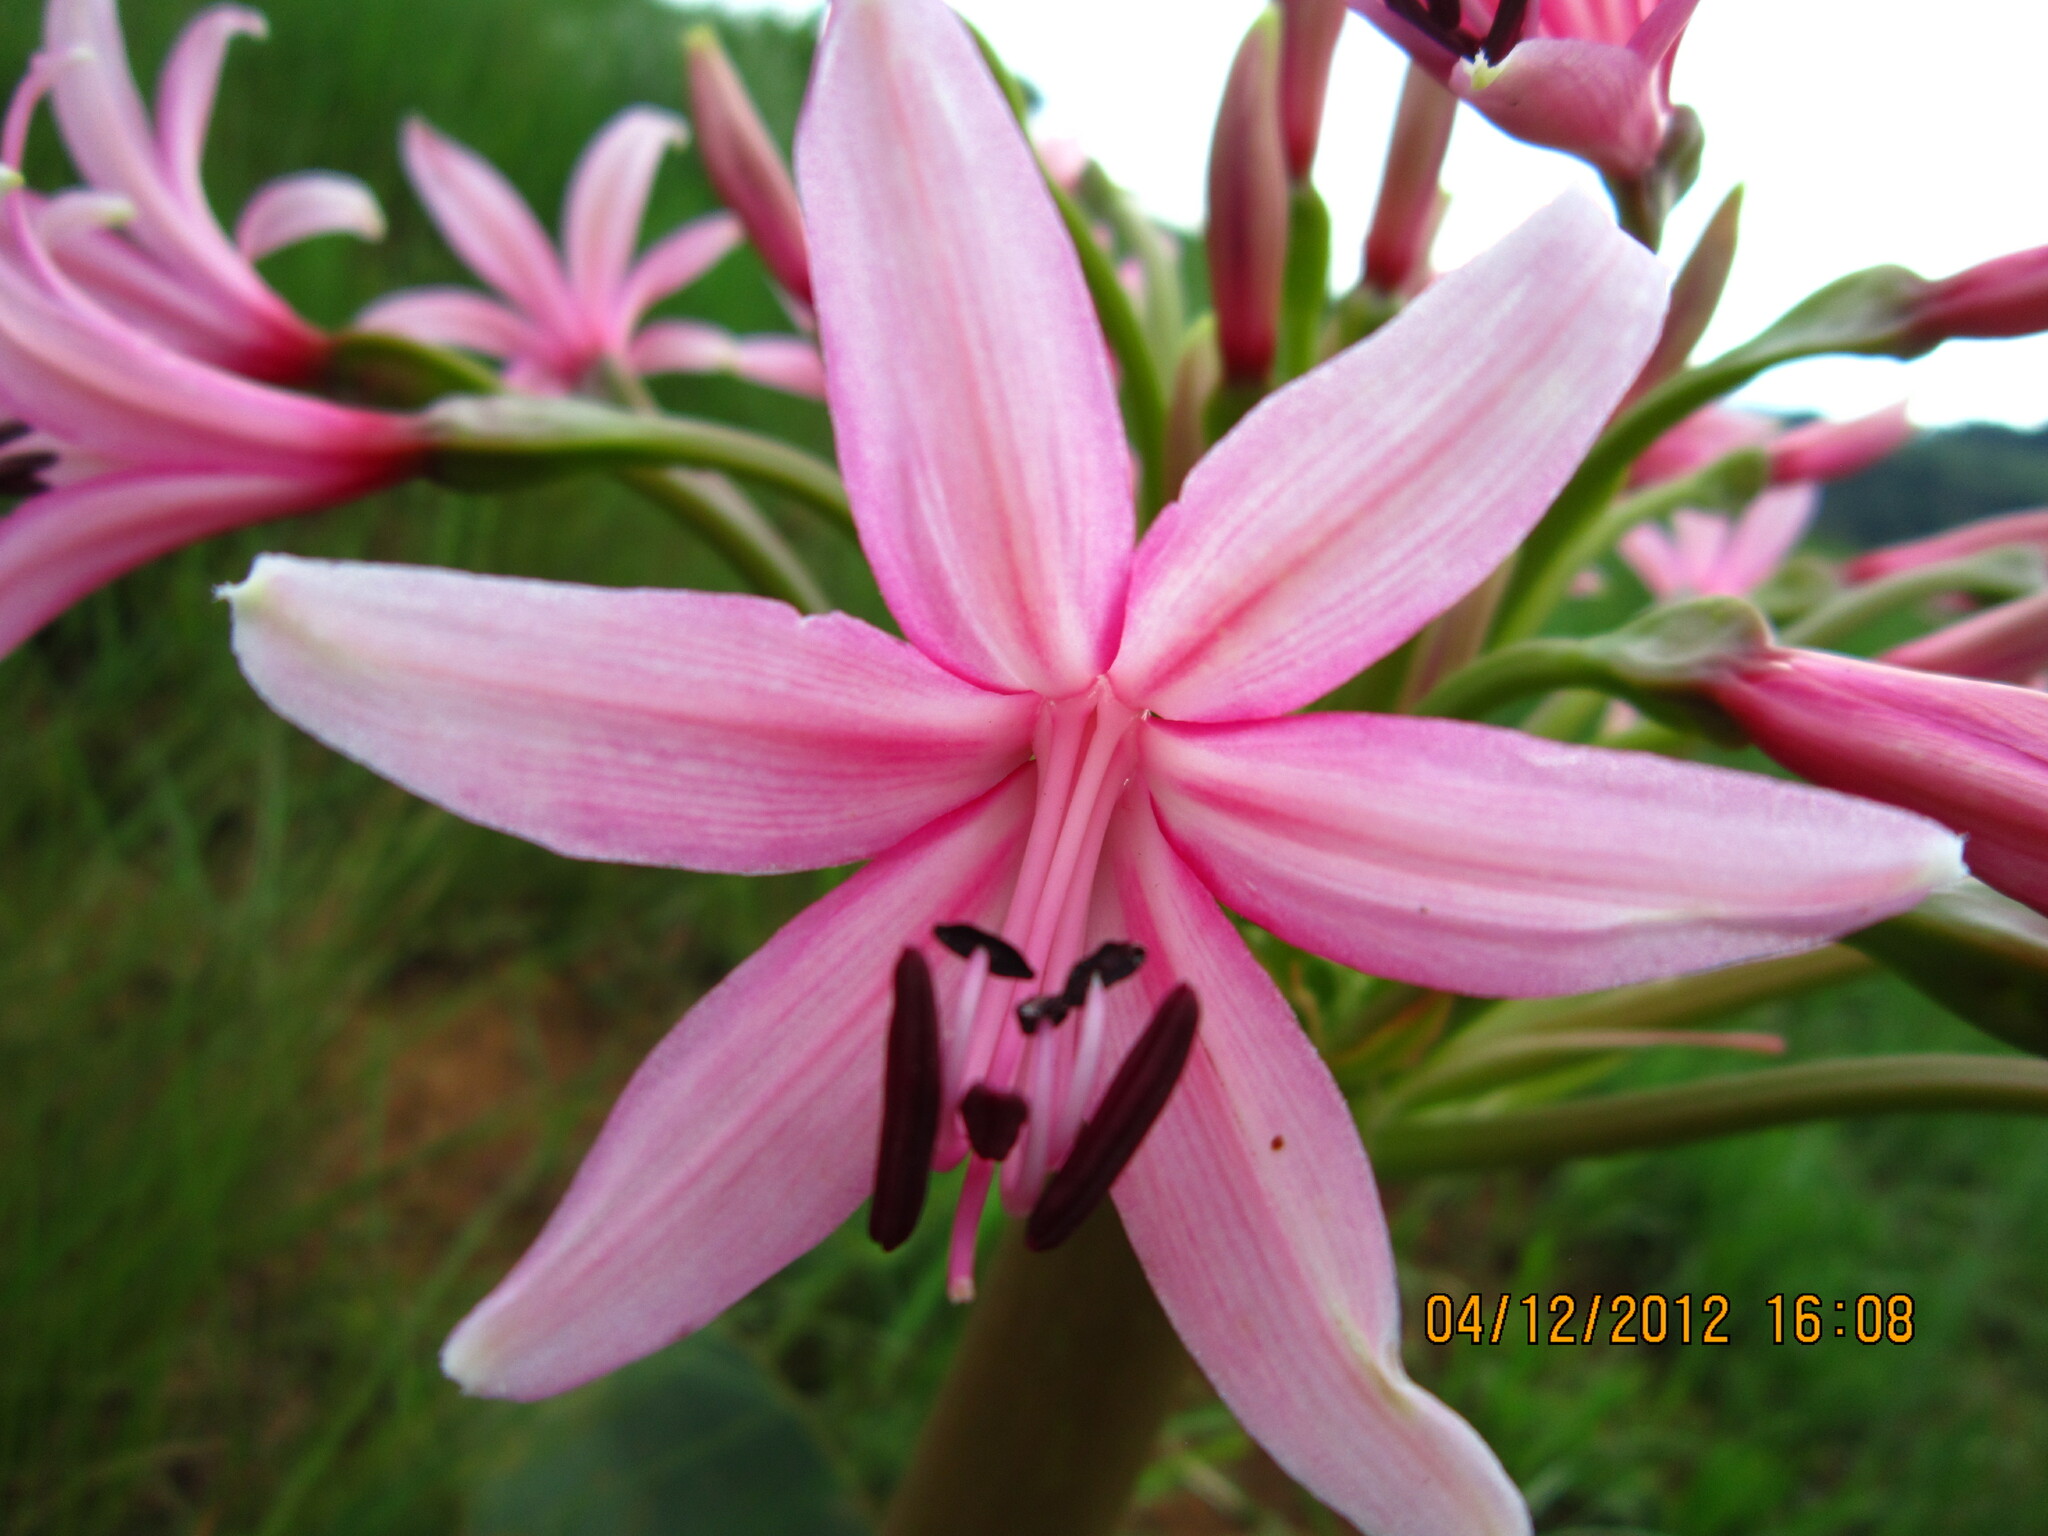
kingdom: Plantae
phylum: Tracheophyta
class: Liliopsida
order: Asparagales
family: Amaryllidaceae
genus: Brunsvigia
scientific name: Brunsvigia radulosa
